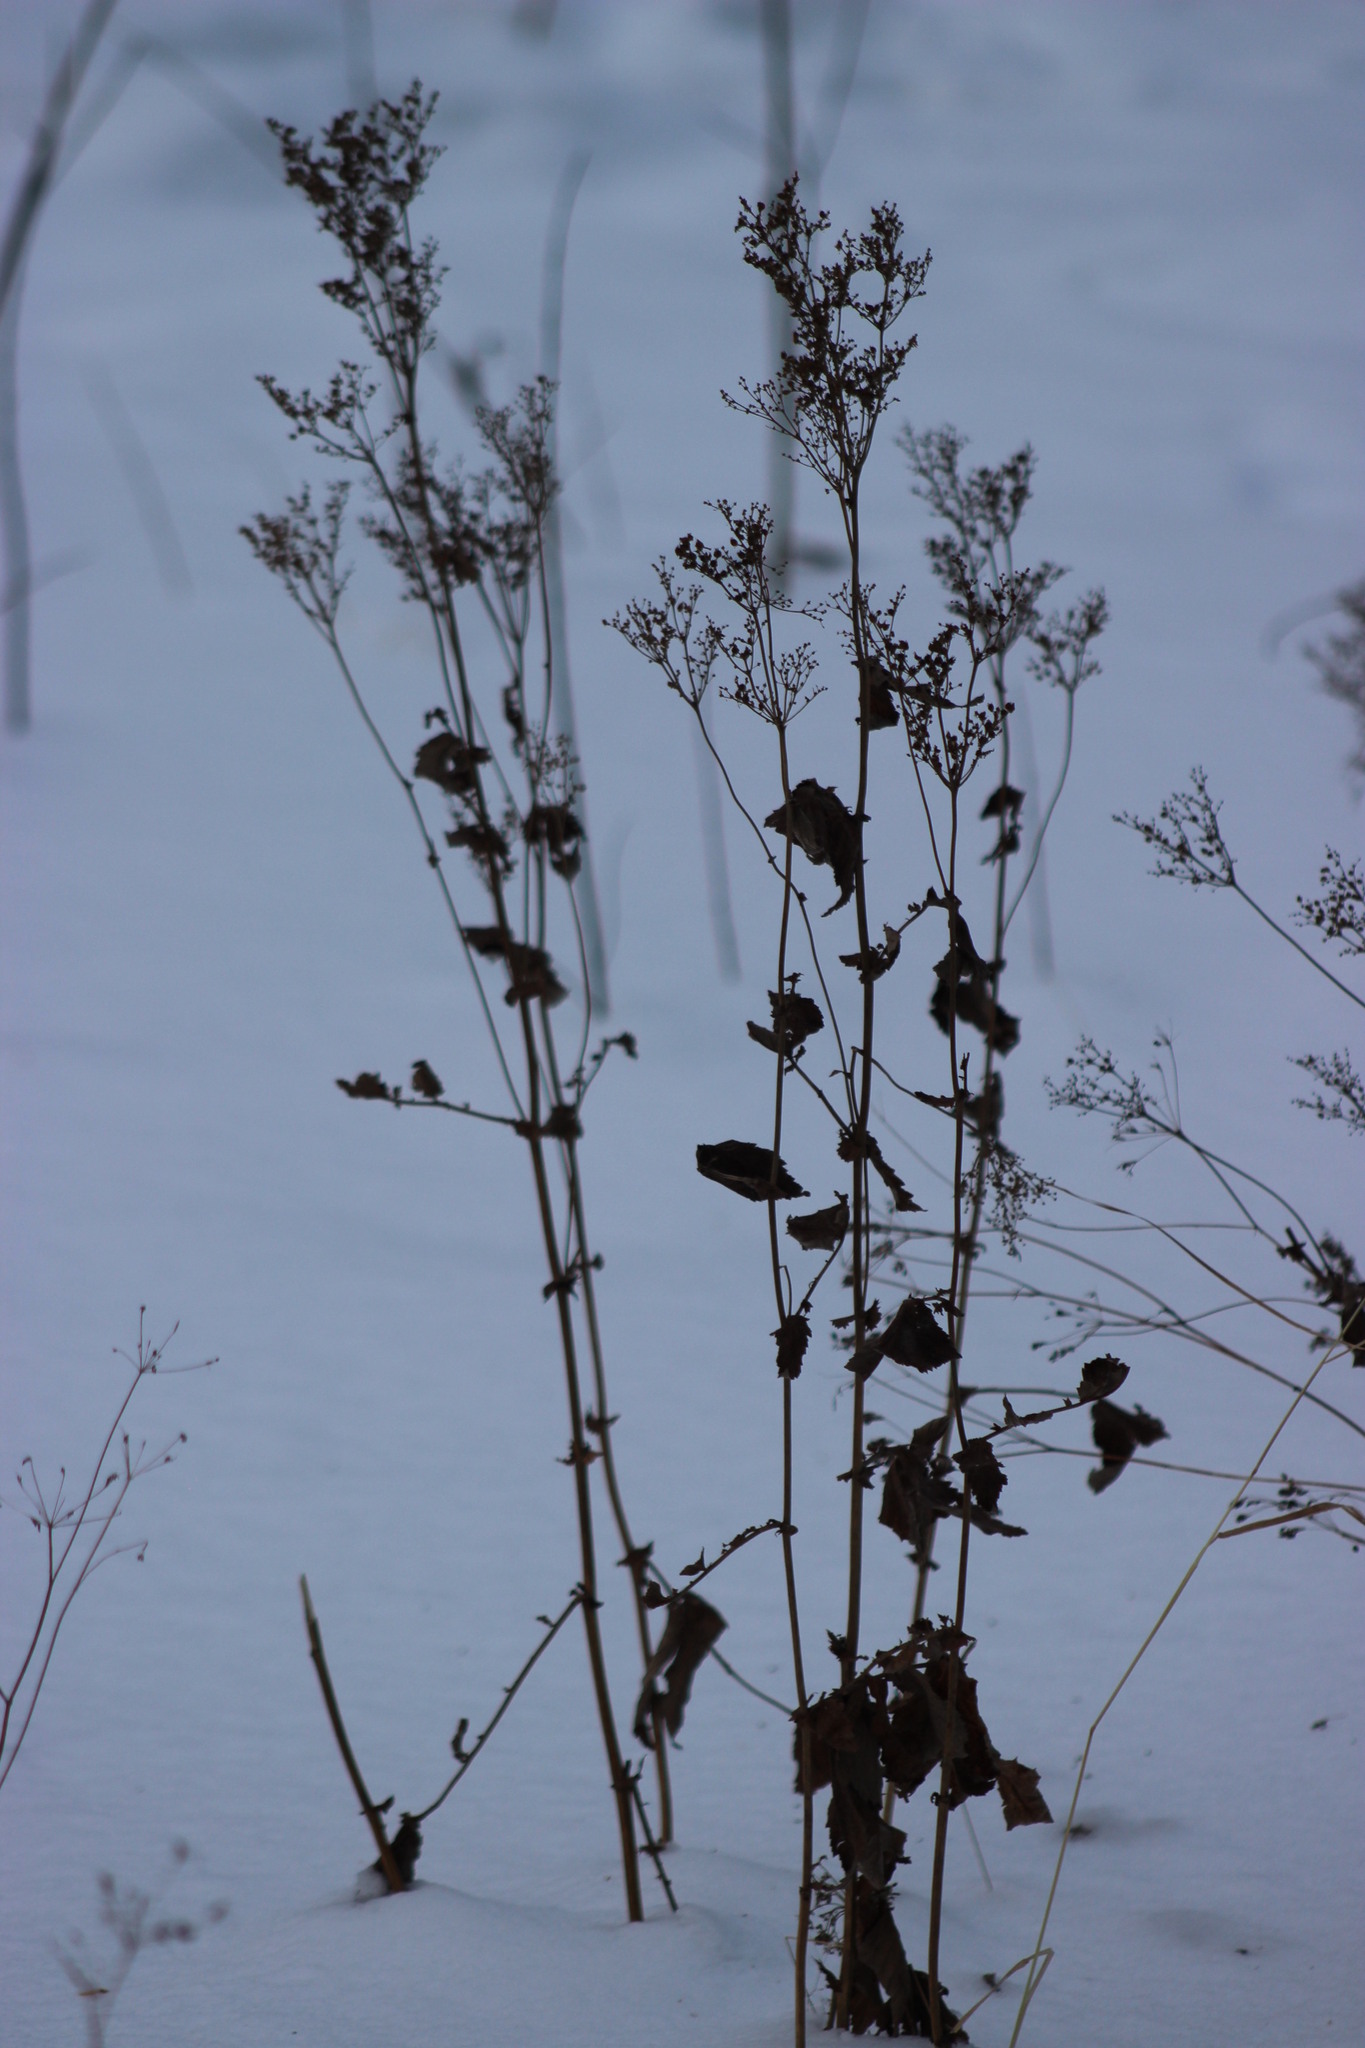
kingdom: Plantae
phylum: Tracheophyta
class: Magnoliopsida
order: Rosales
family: Rosaceae
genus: Filipendula
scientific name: Filipendula ulmaria
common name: Meadowsweet
